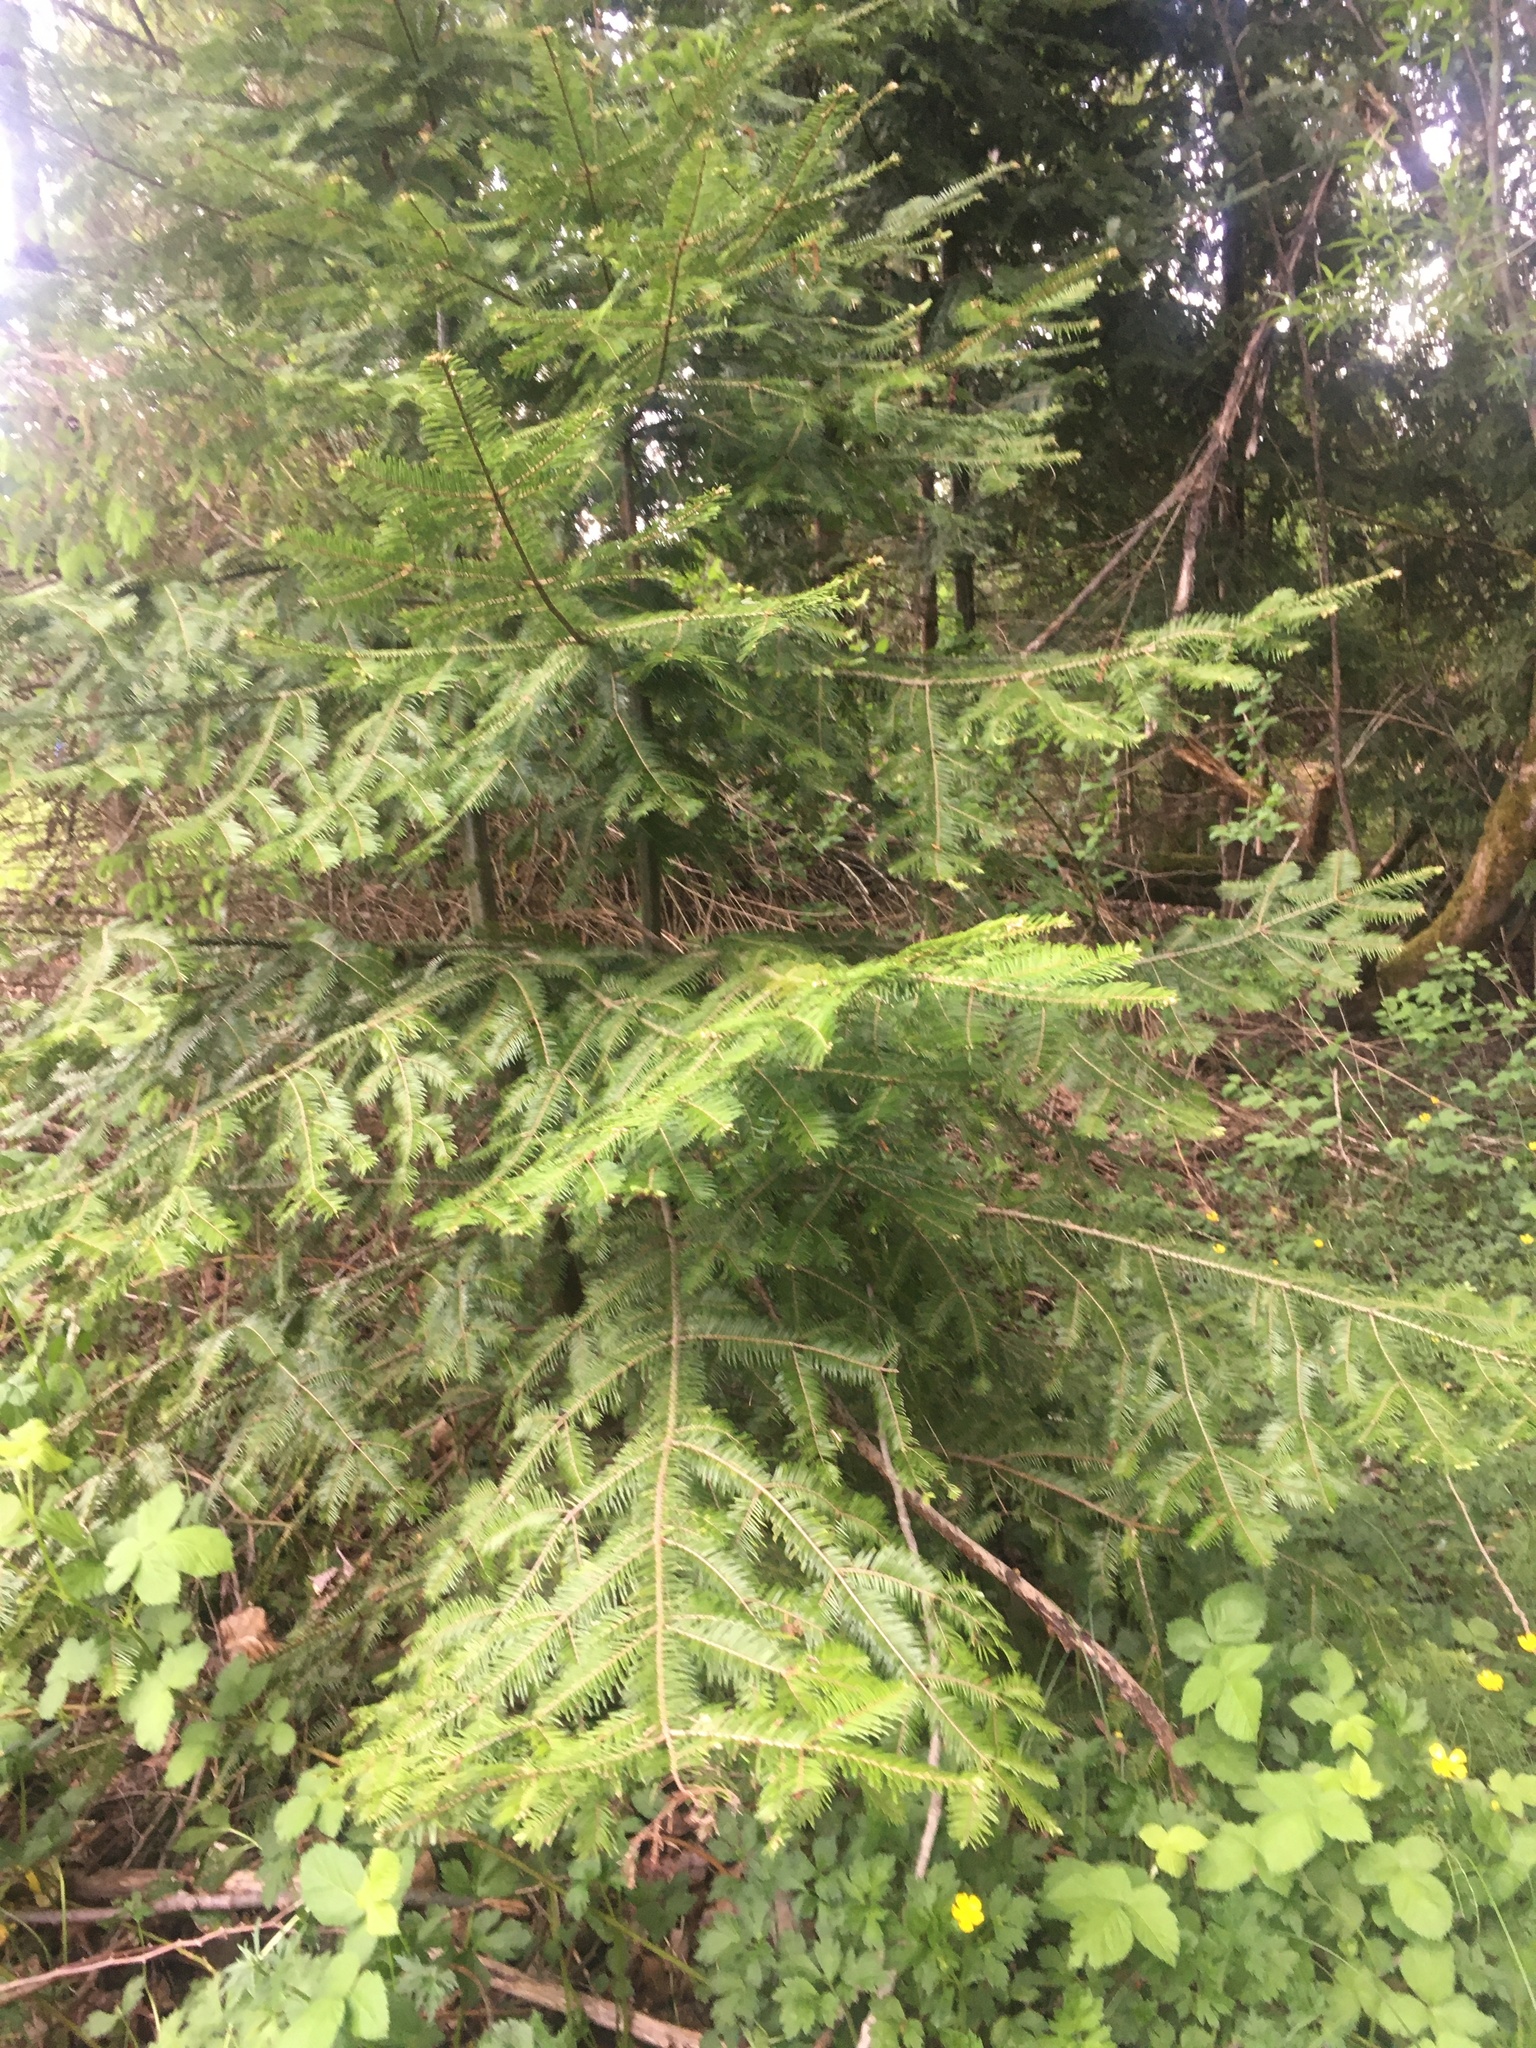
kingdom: Plantae
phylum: Tracheophyta
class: Pinopsida
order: Pinales
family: Pinaceae
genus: Abies
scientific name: Abies grandis
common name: Giant fir
